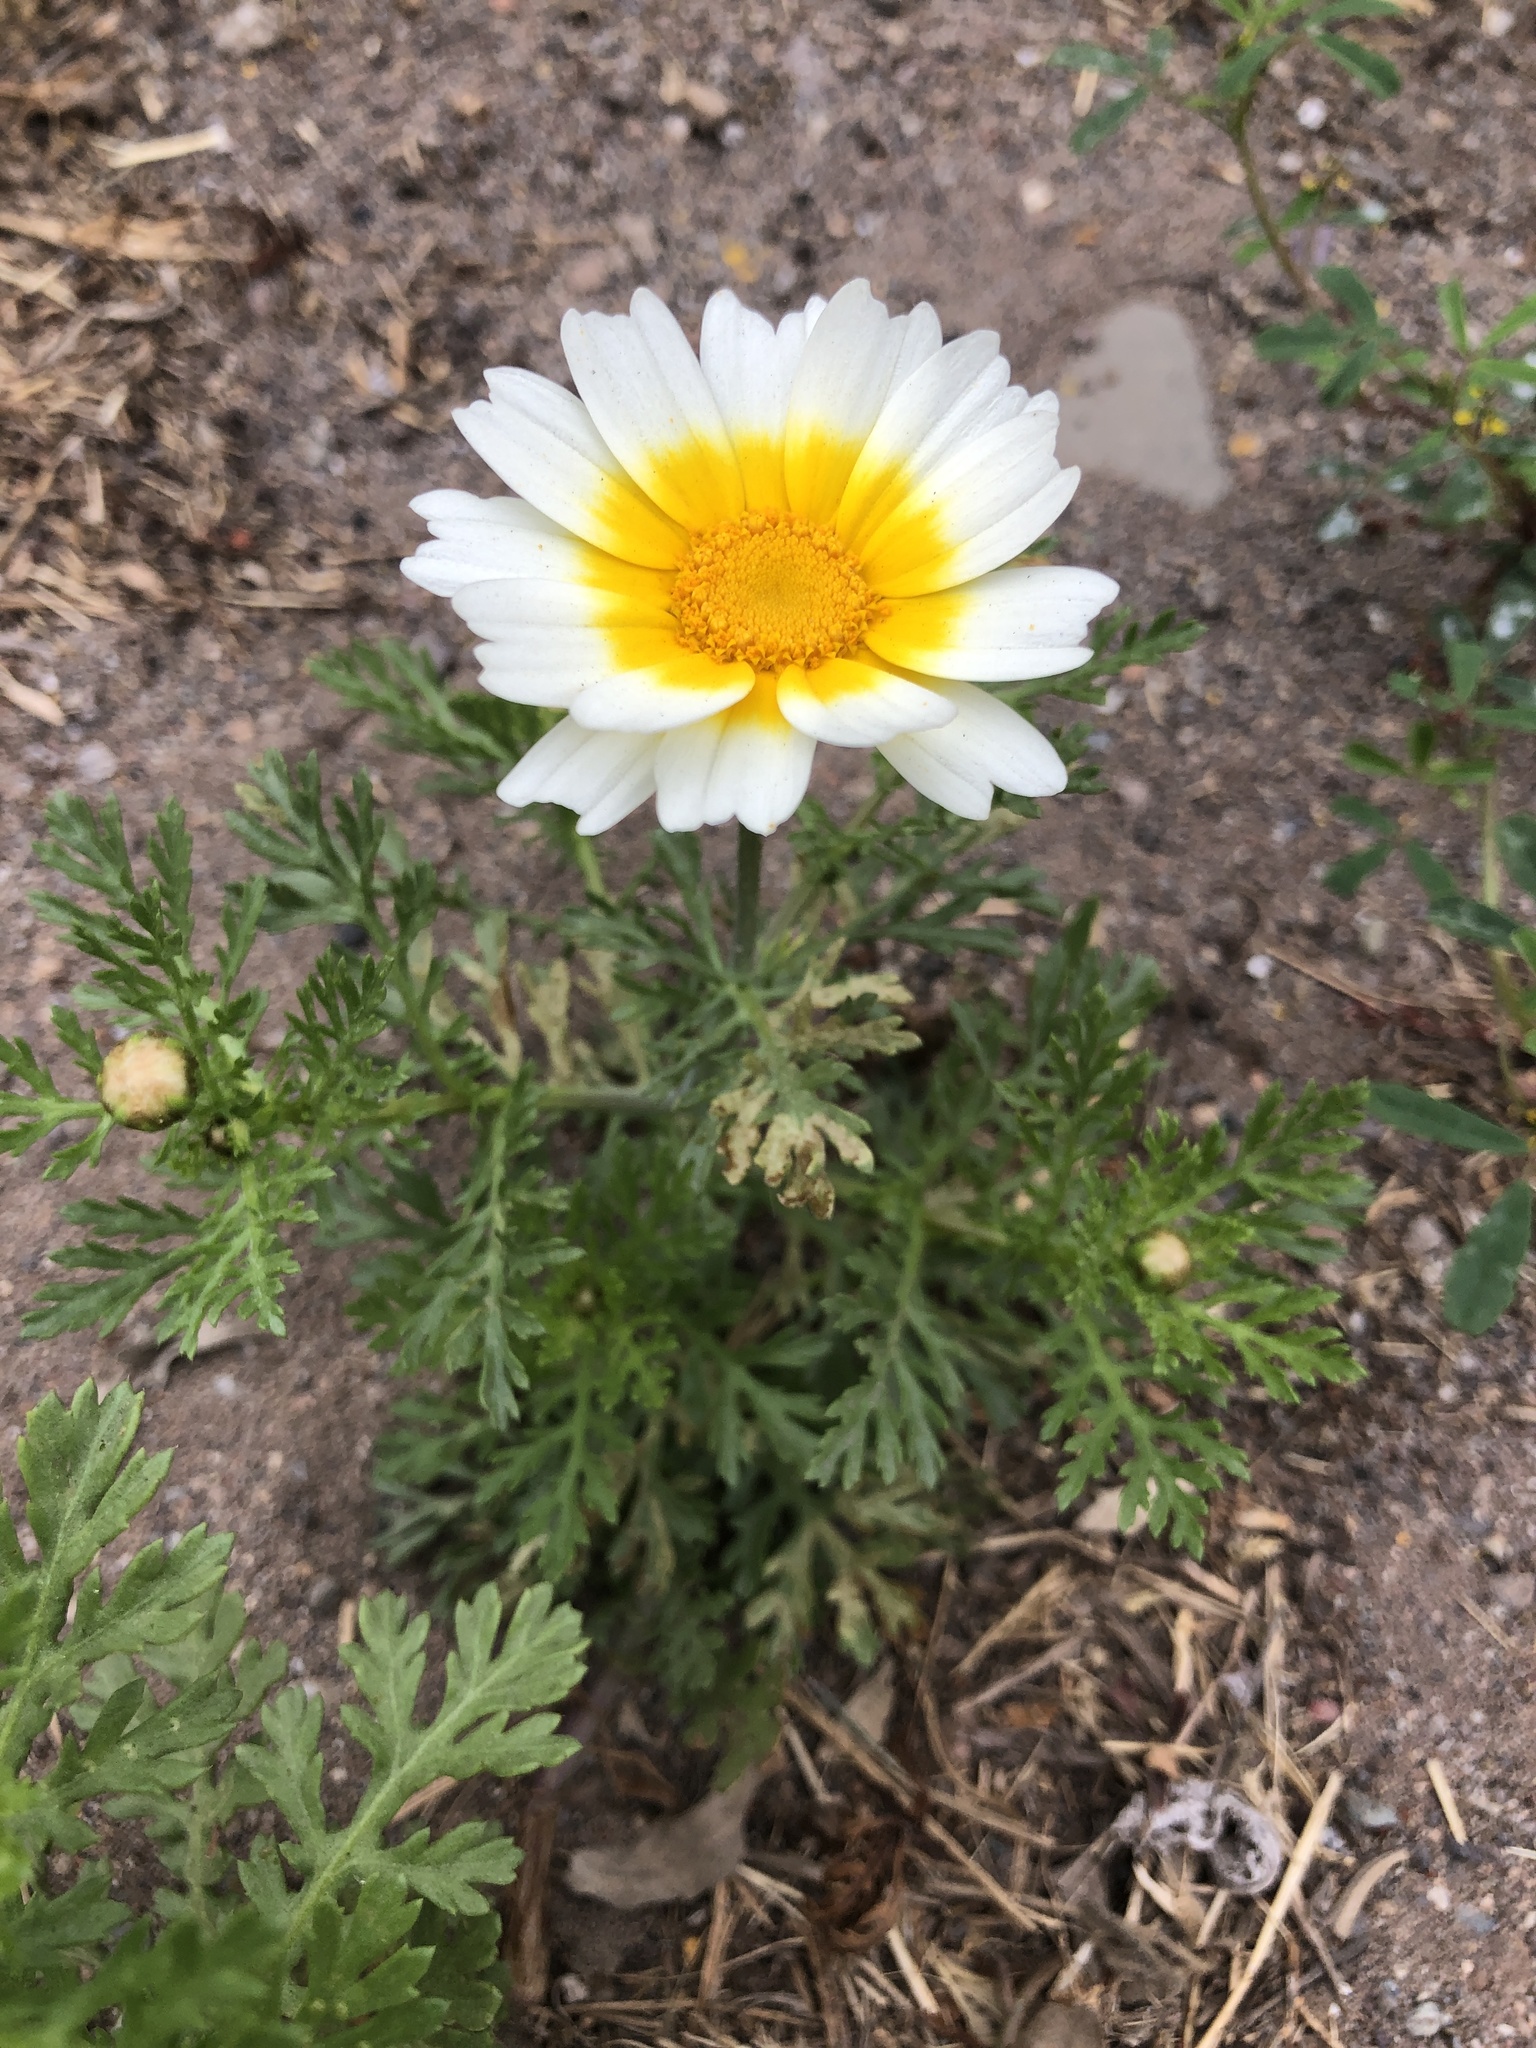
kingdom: Plantae
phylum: Tracheophyta
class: Magnoliopsida
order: Asterales
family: Asteraceae
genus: Glebionis
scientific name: Glebionis coronaria
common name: Crowndaisy
